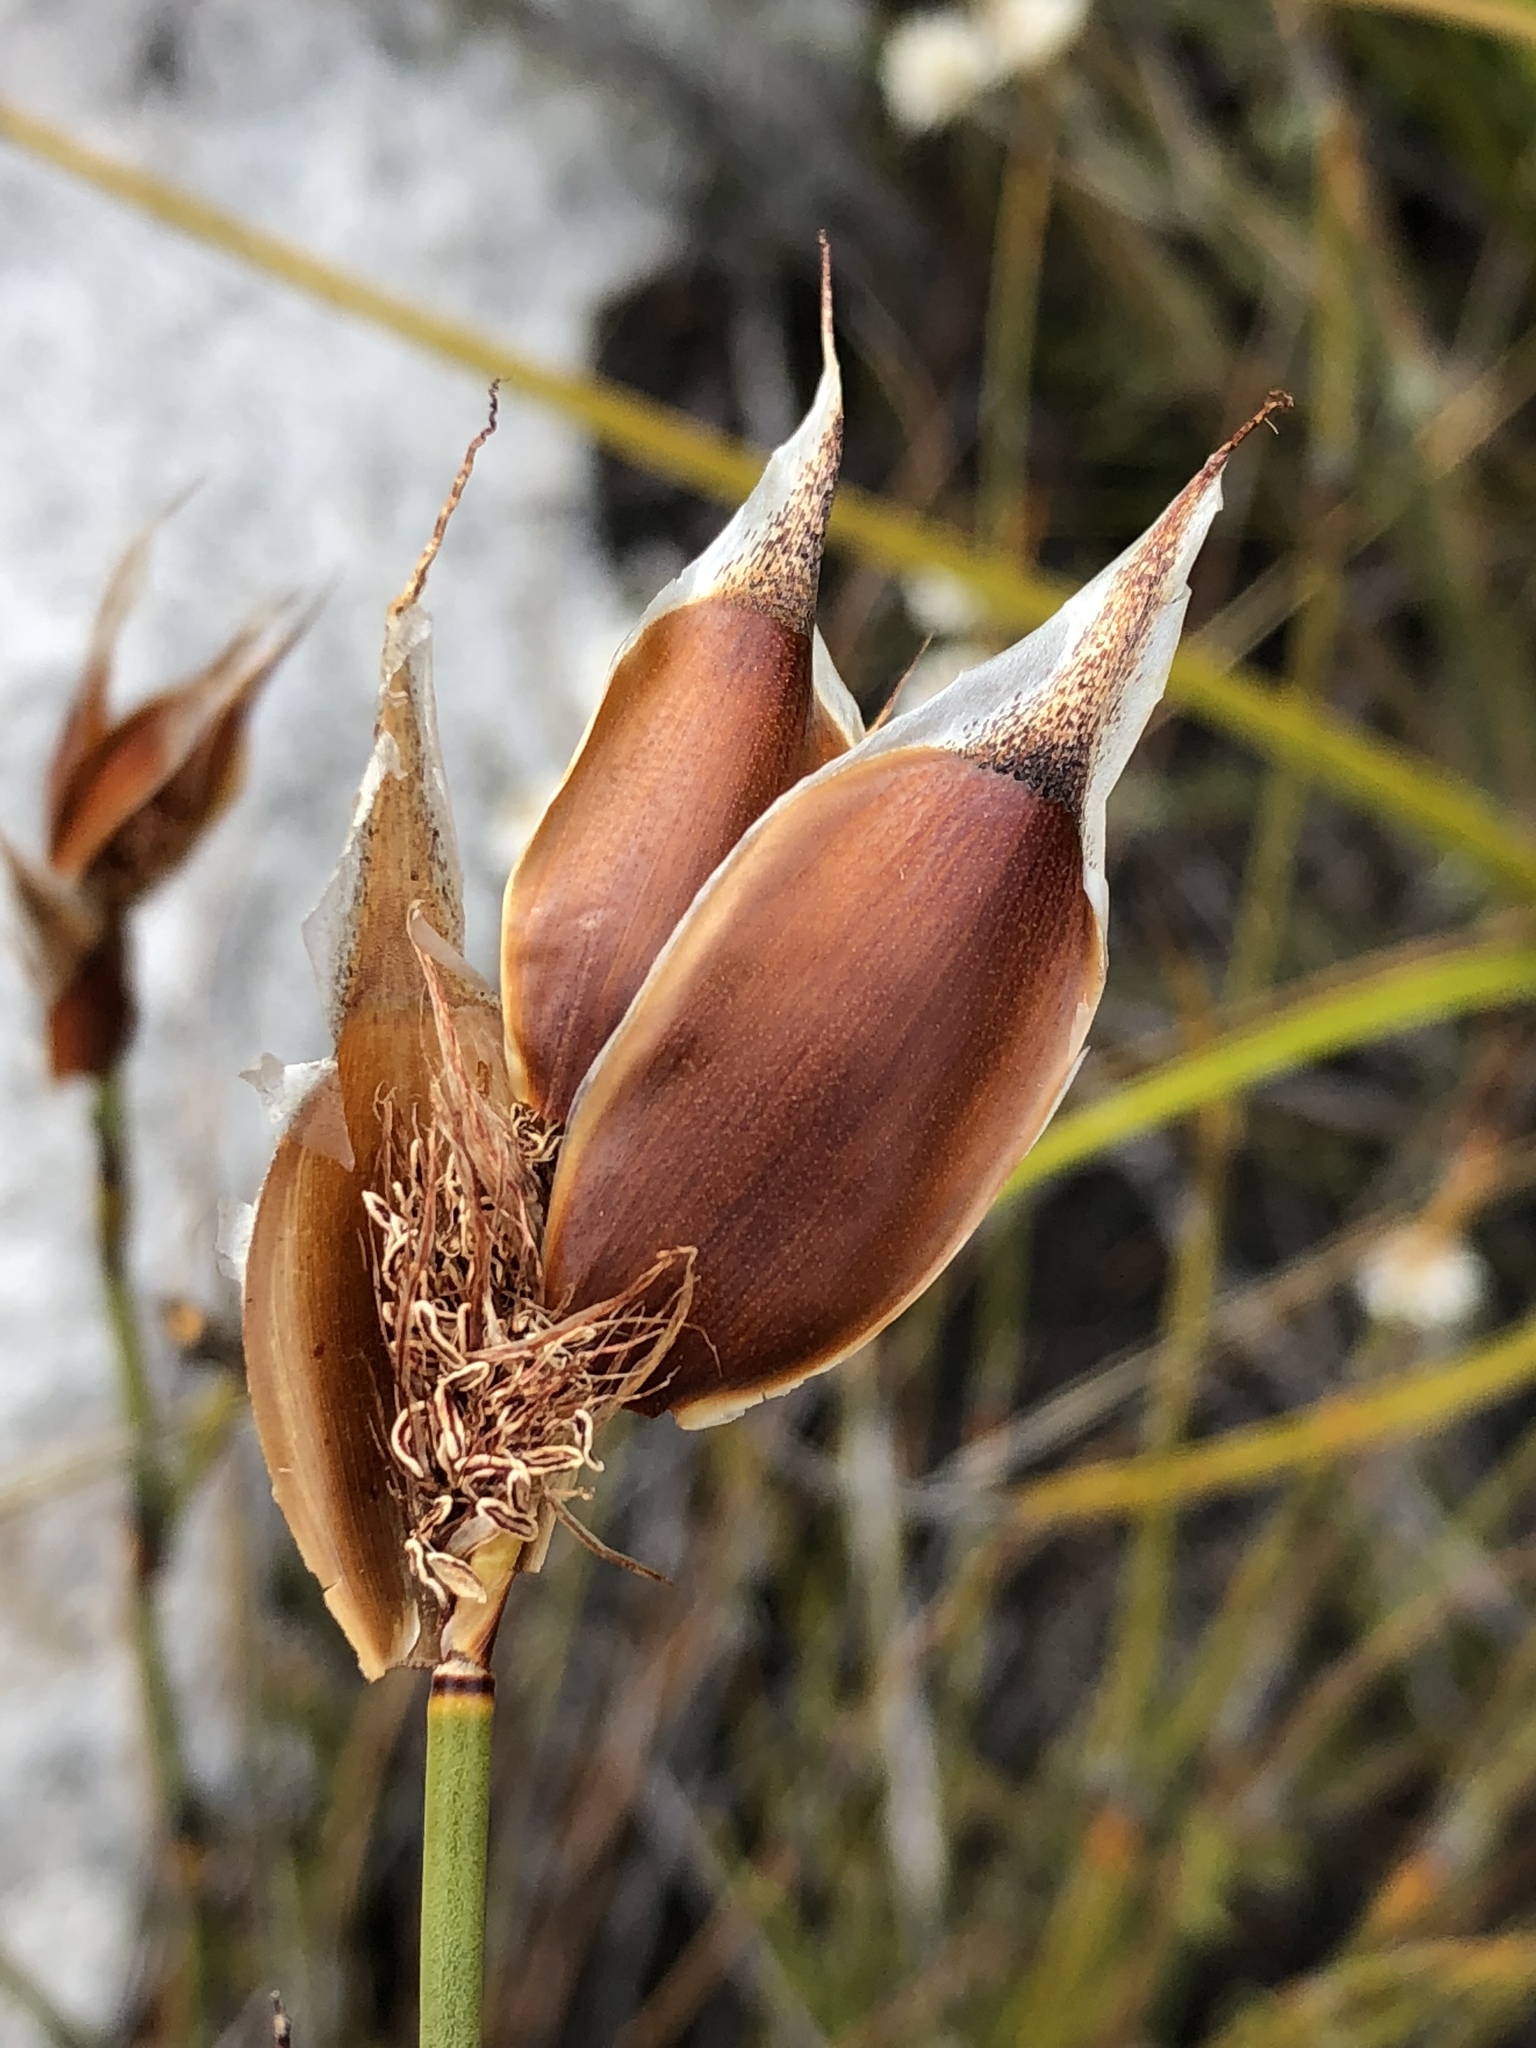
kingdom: Plantae
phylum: Tracheophyta
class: Liliopsida
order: Poales
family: Restionaceae
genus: Willdenowia
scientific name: Willdenowia teres
